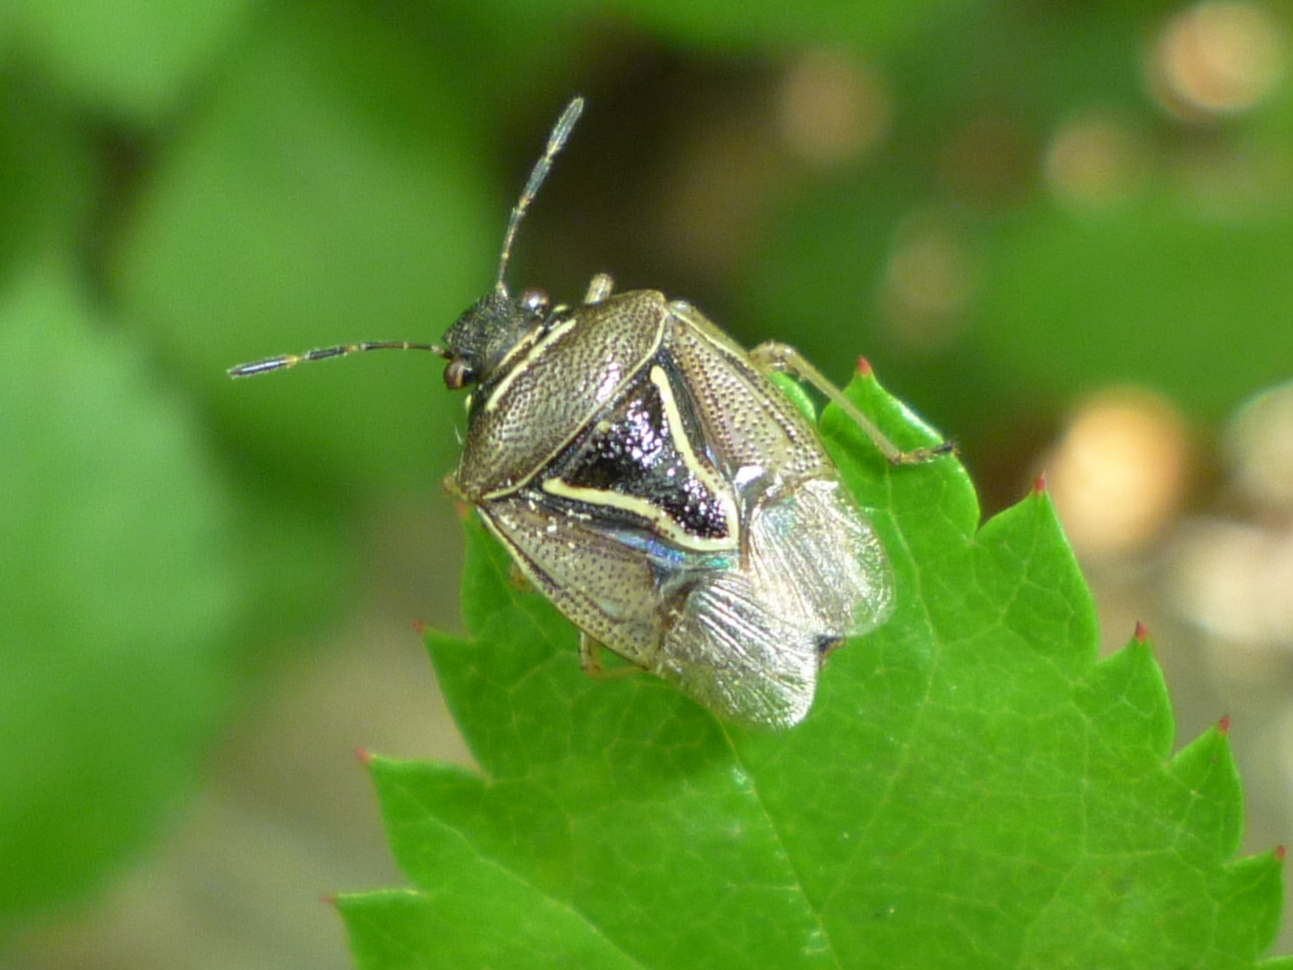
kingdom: Animalia
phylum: Arthropoda
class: Insecta
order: Hemiptera
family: Pentatomidae
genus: Mormidea
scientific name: Mormidea lugens
